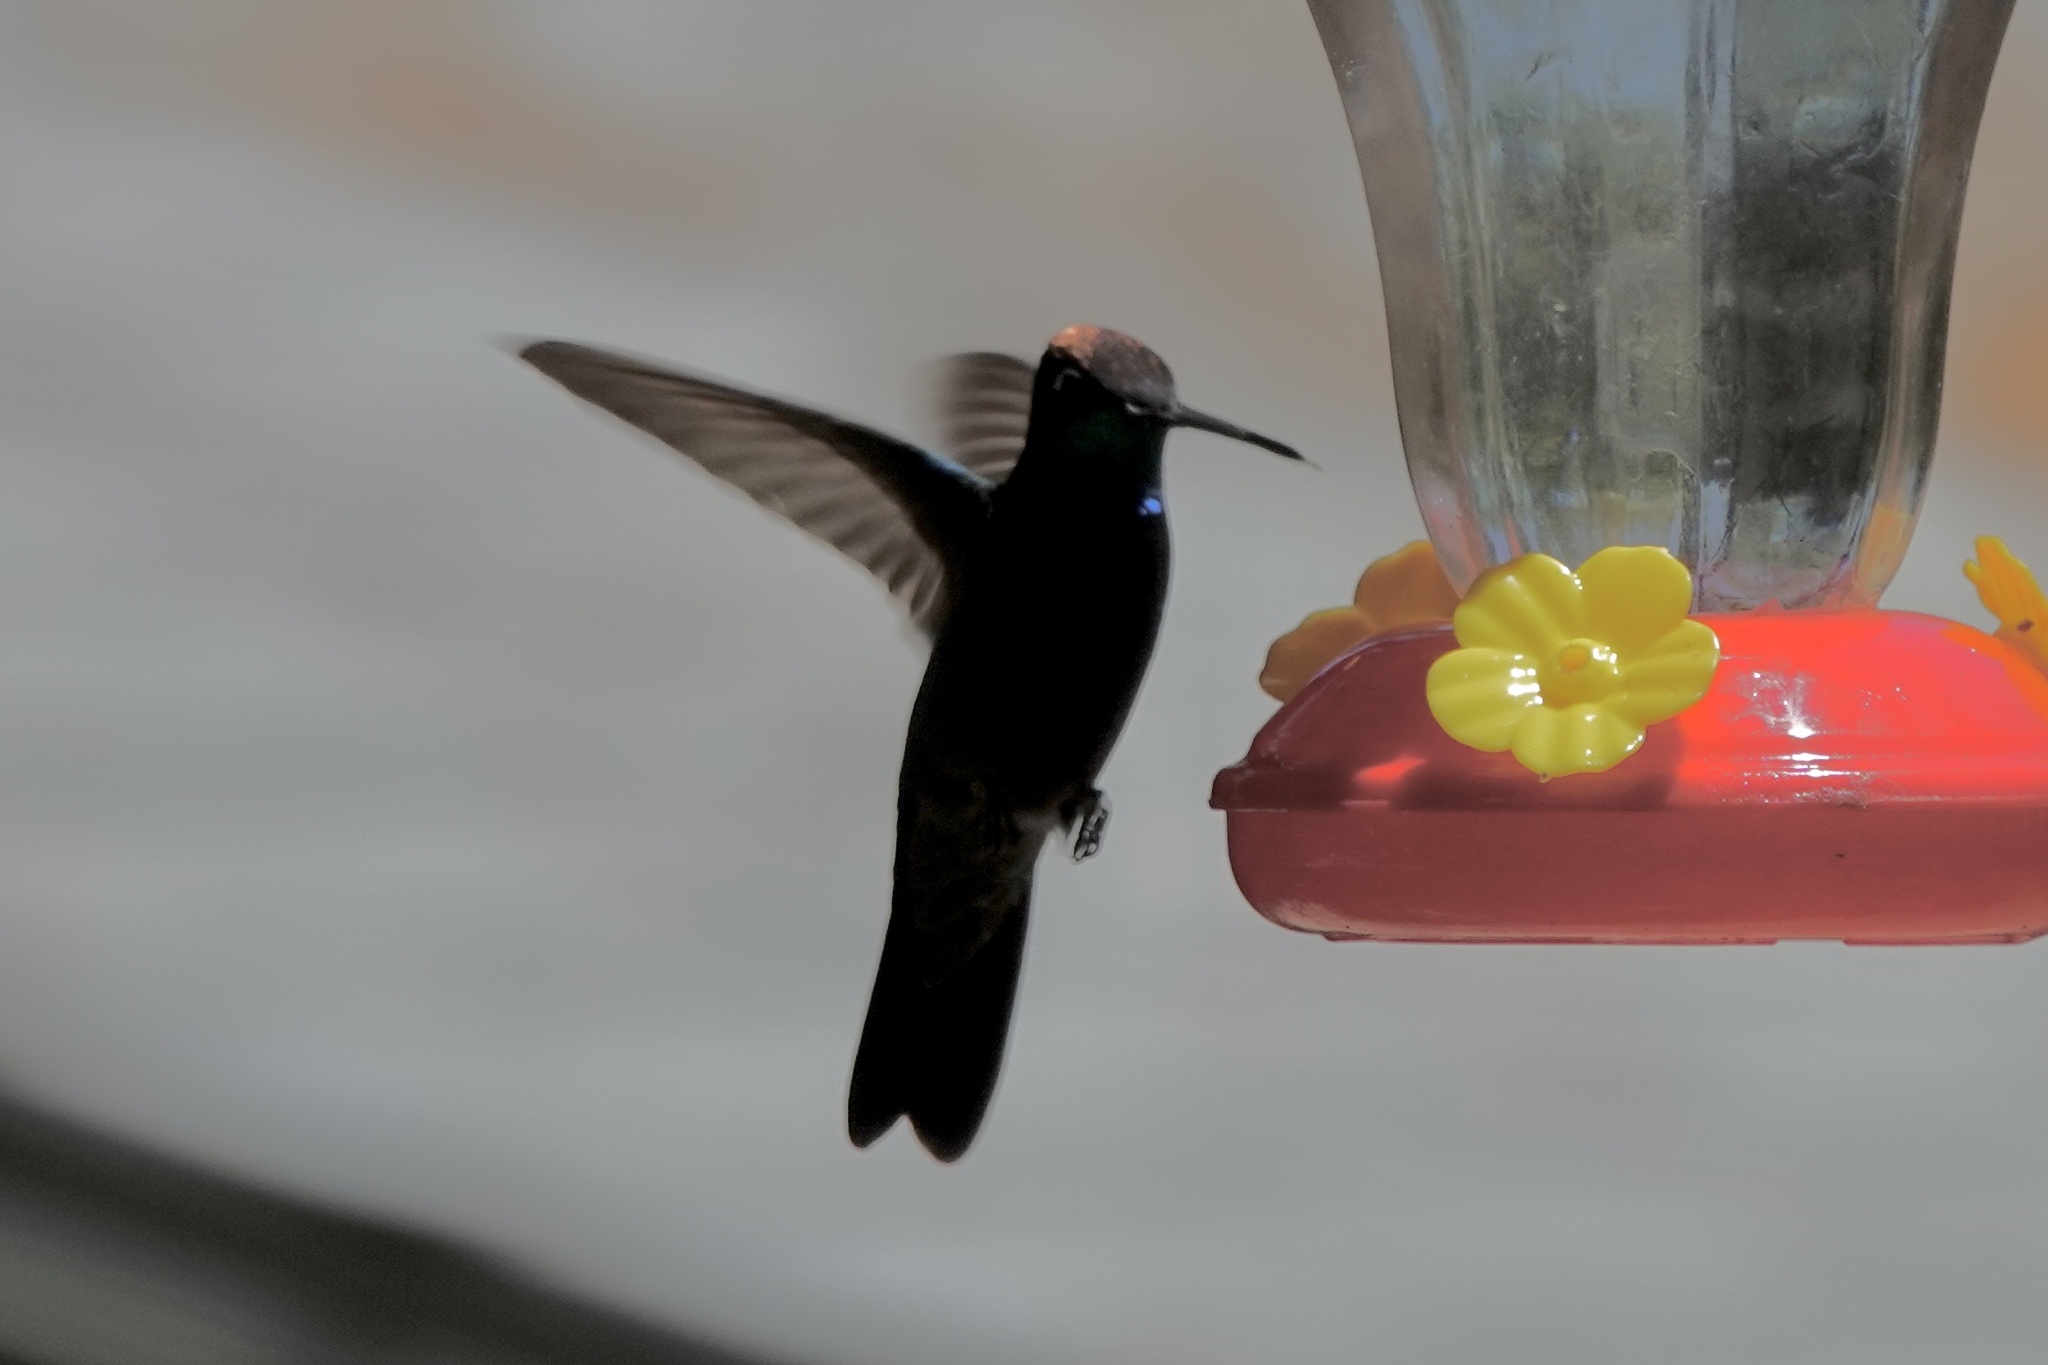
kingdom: Animalia
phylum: Chordata
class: Aves
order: Apodiformes
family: Trochilidae
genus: Eugenes
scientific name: Eugenes fulgens
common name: Magnificent hummingbird
